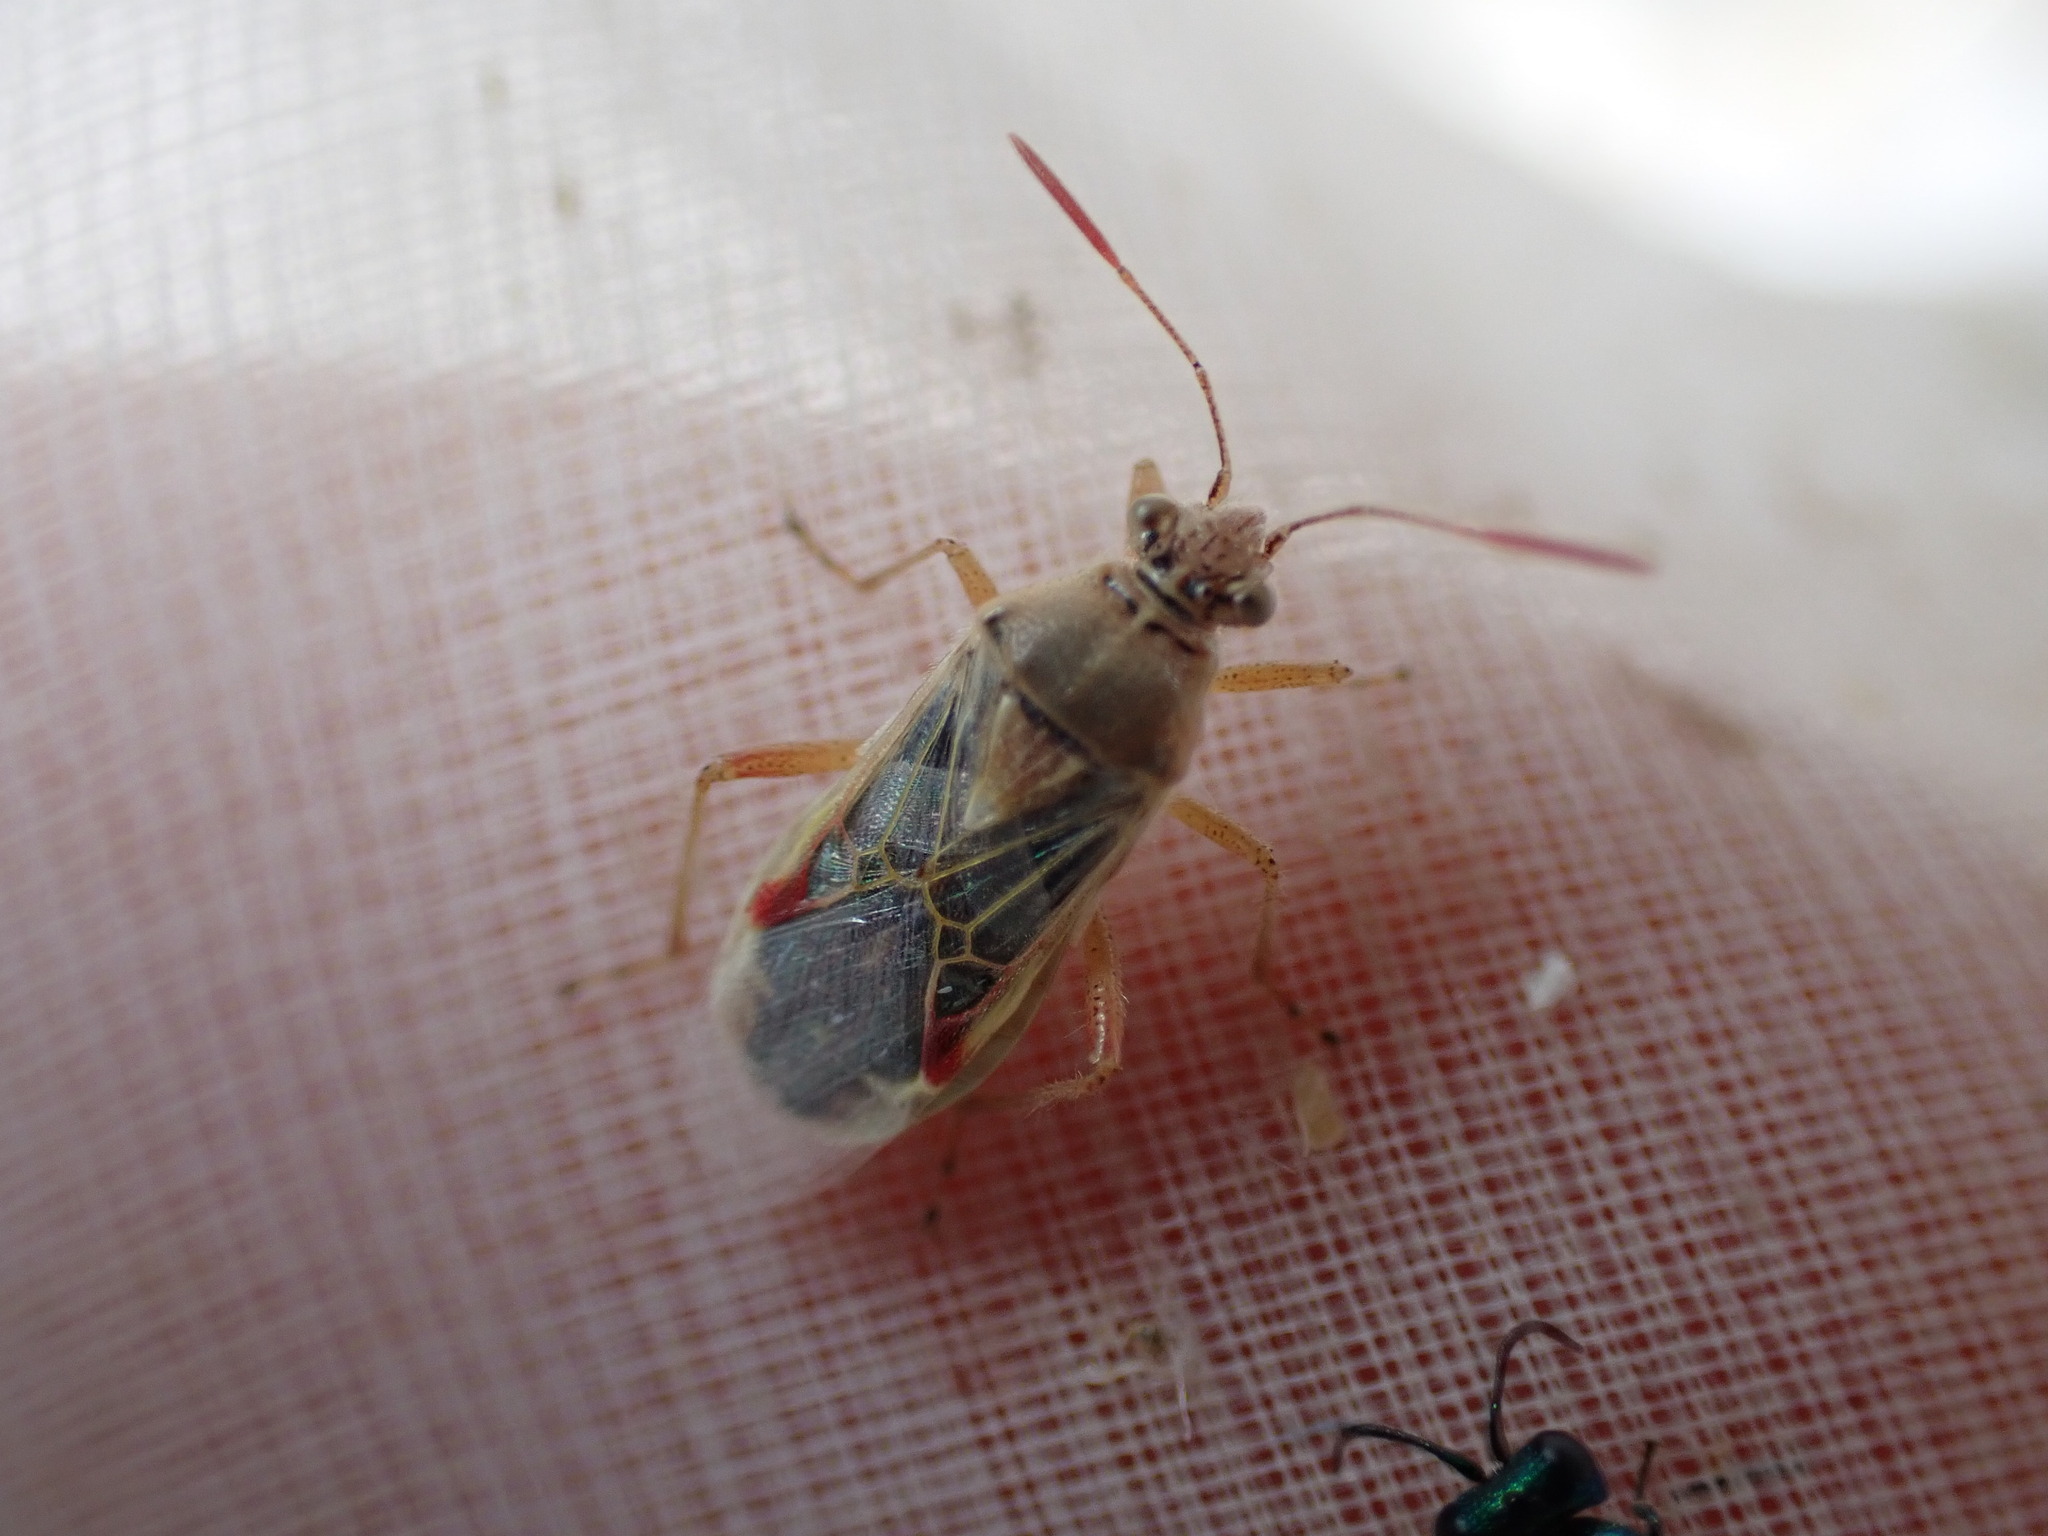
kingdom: Animalia
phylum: Arthropoda
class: Insecta
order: Hemiptera
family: Rhopalidae
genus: Liorhyssus
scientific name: Liorhyssus hyalinus
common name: Scentless plant bug
